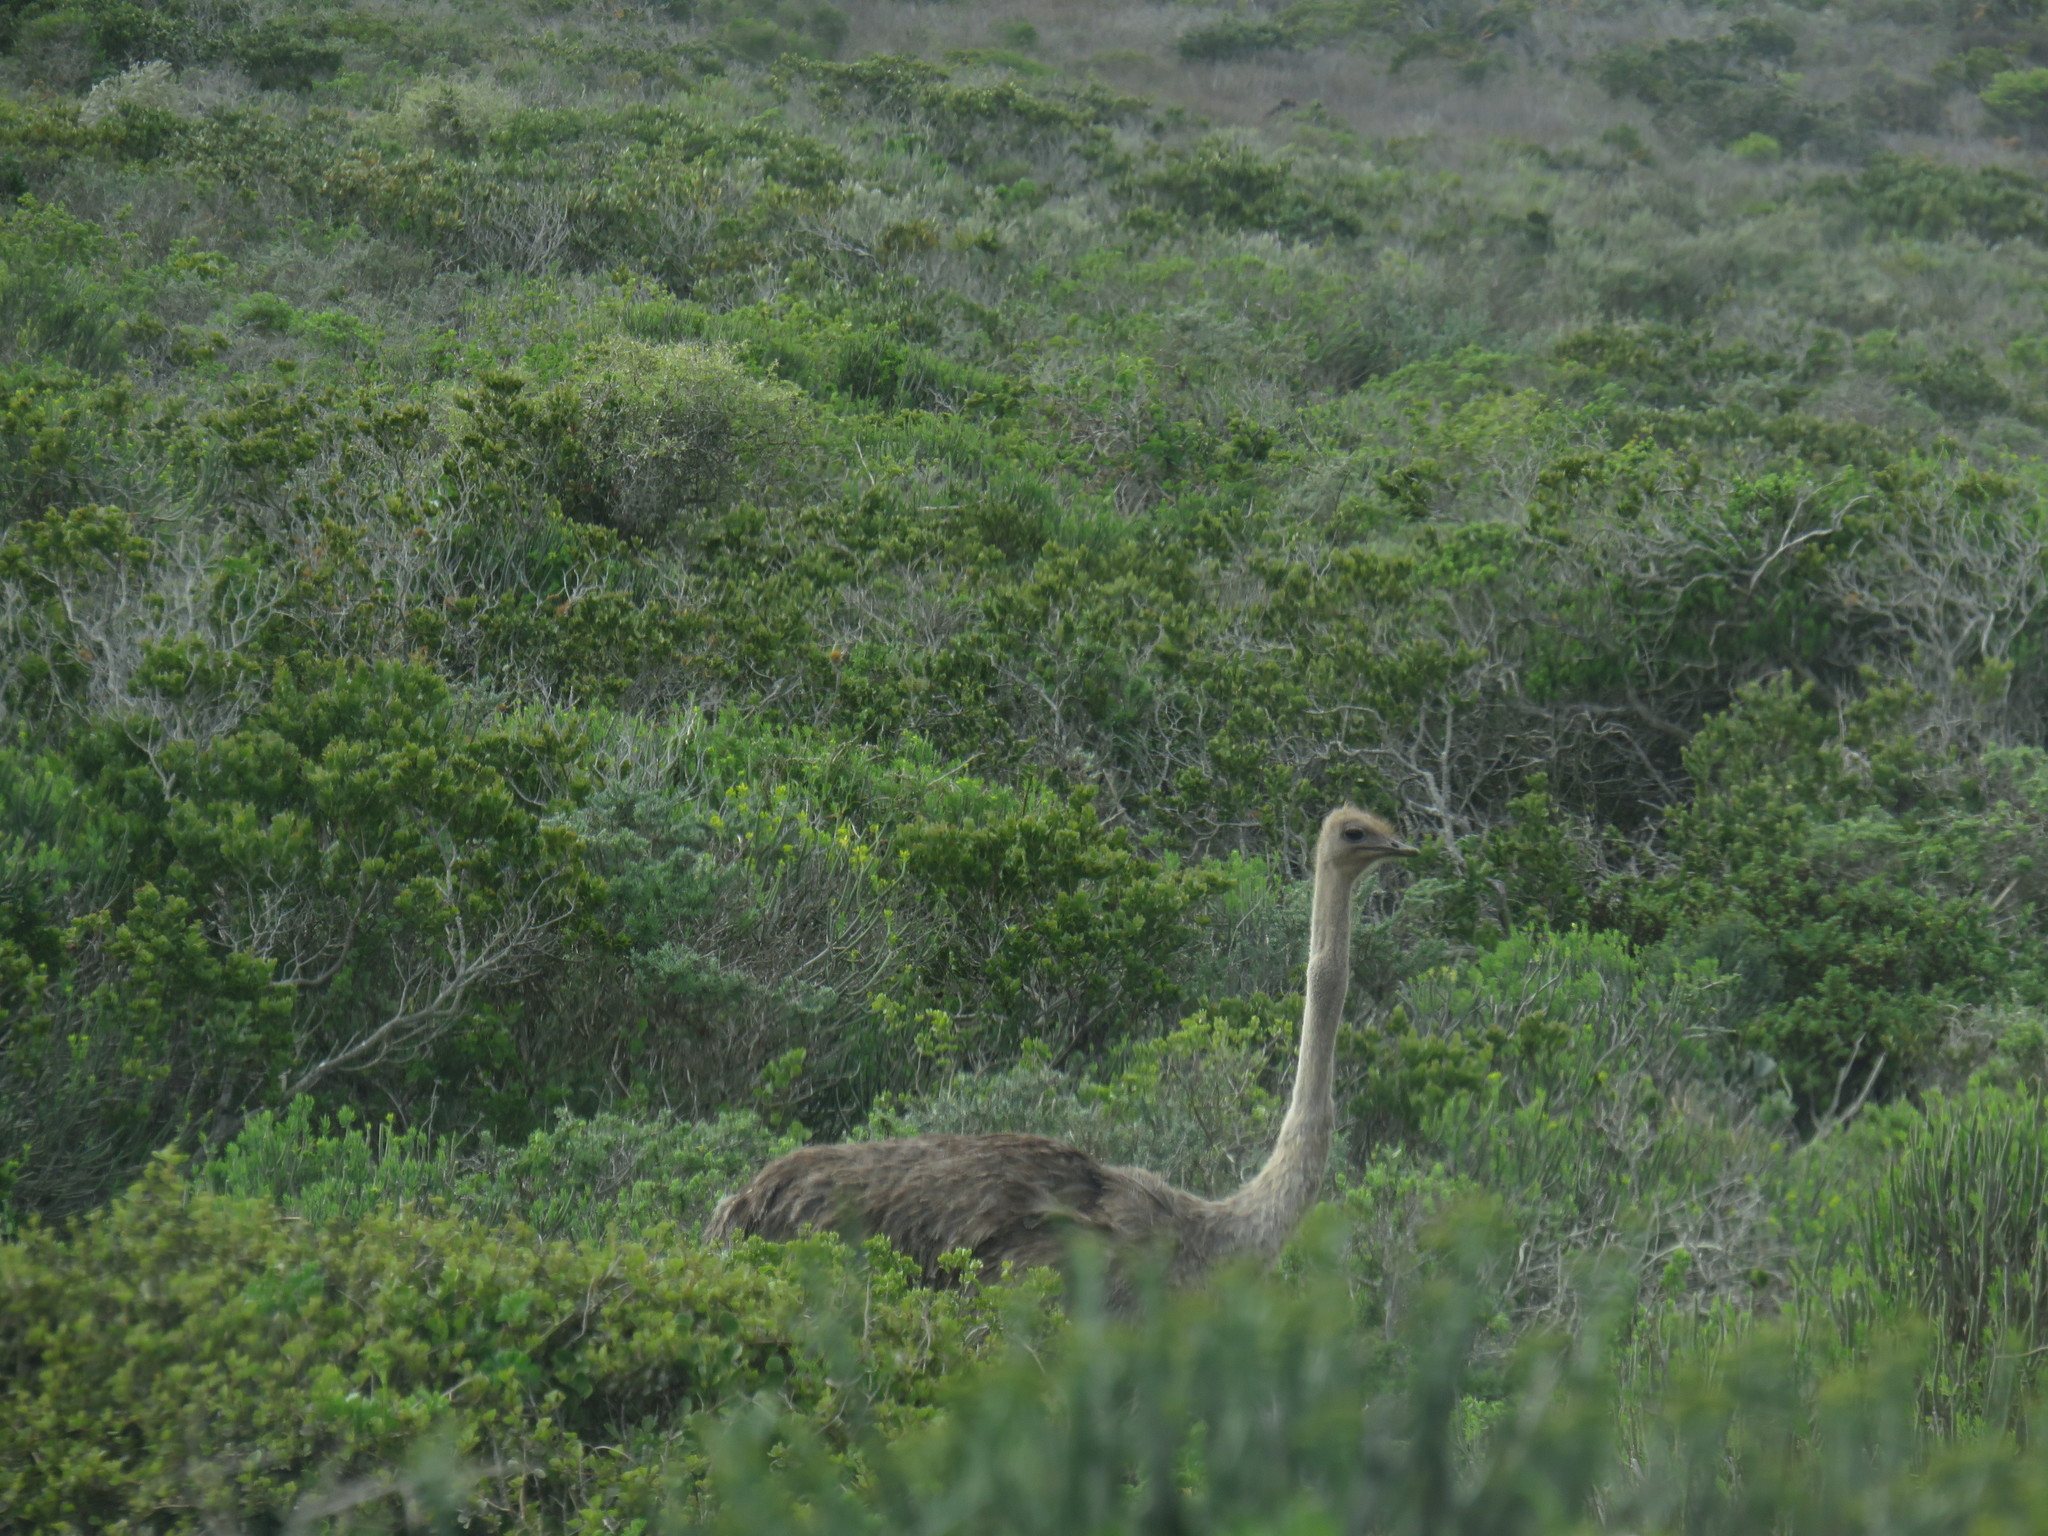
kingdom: Animalia
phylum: Chordata
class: Aves
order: Struthioniformes
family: Struthionidae
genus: Struthio
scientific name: Struthio camelus
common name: Common ostrich
